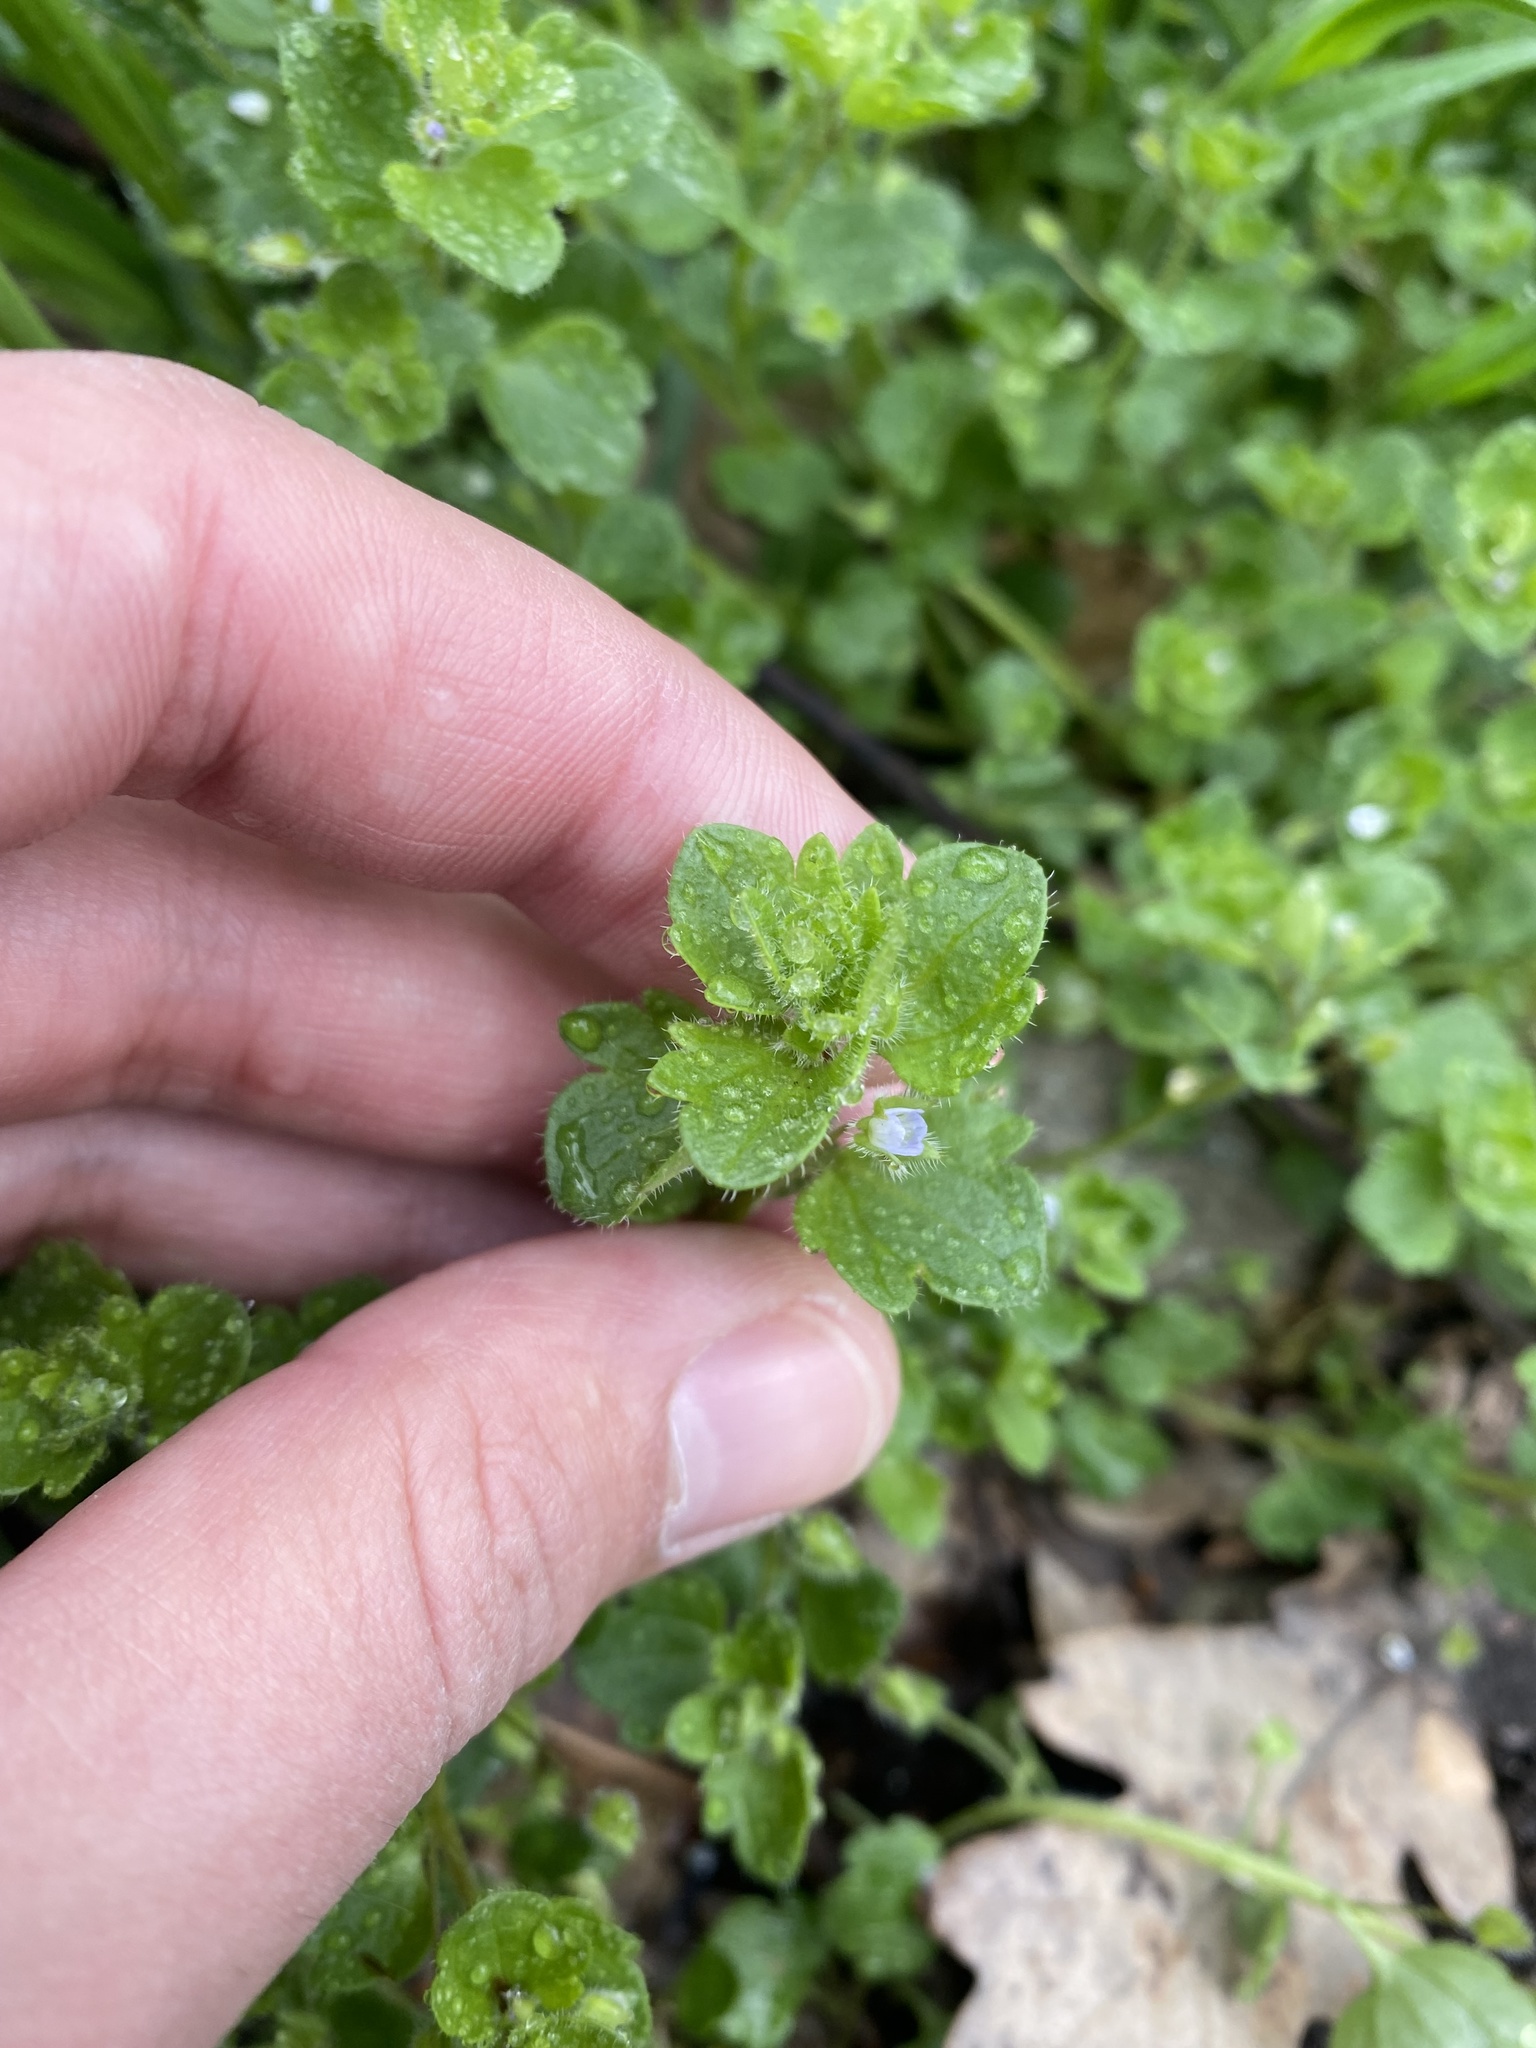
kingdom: Plantae
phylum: Tracheophyta
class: Magnoliopsida
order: Lamiales
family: Plantaginaceae
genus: Veronica
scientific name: Veronica hederifolia
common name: Ivy-leaved speedwell
